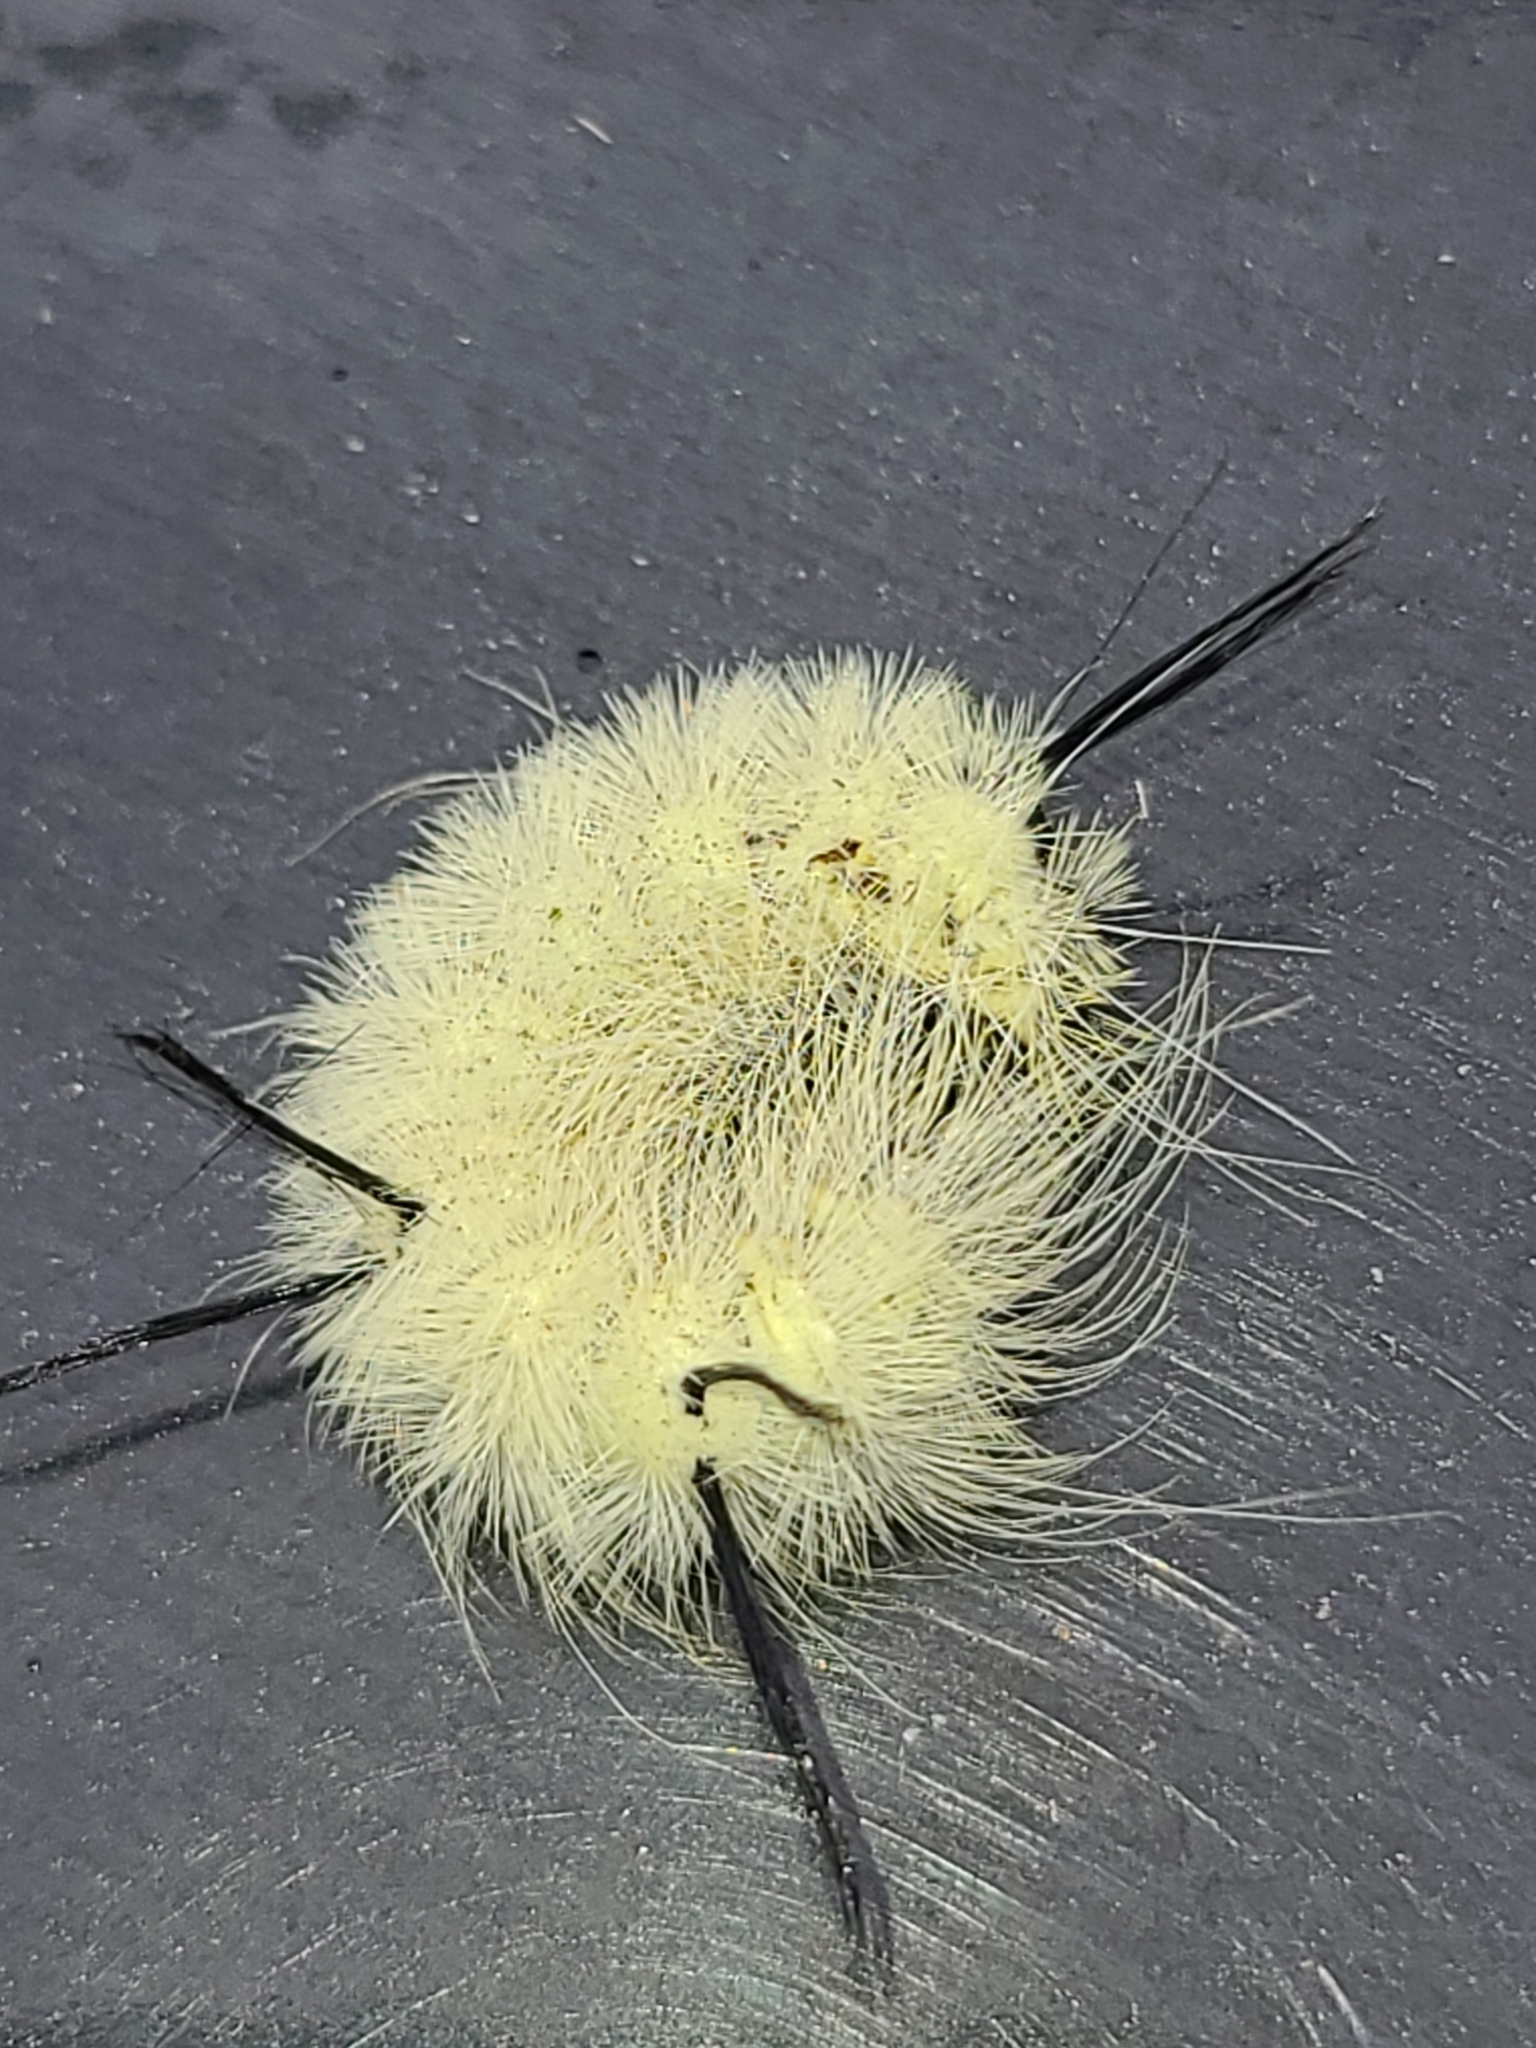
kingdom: Animalia
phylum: Arthropoda
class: Insecta
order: Lepidoptera
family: Noctuidae
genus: Acronicta
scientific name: Acronicta americana
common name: American dagger
